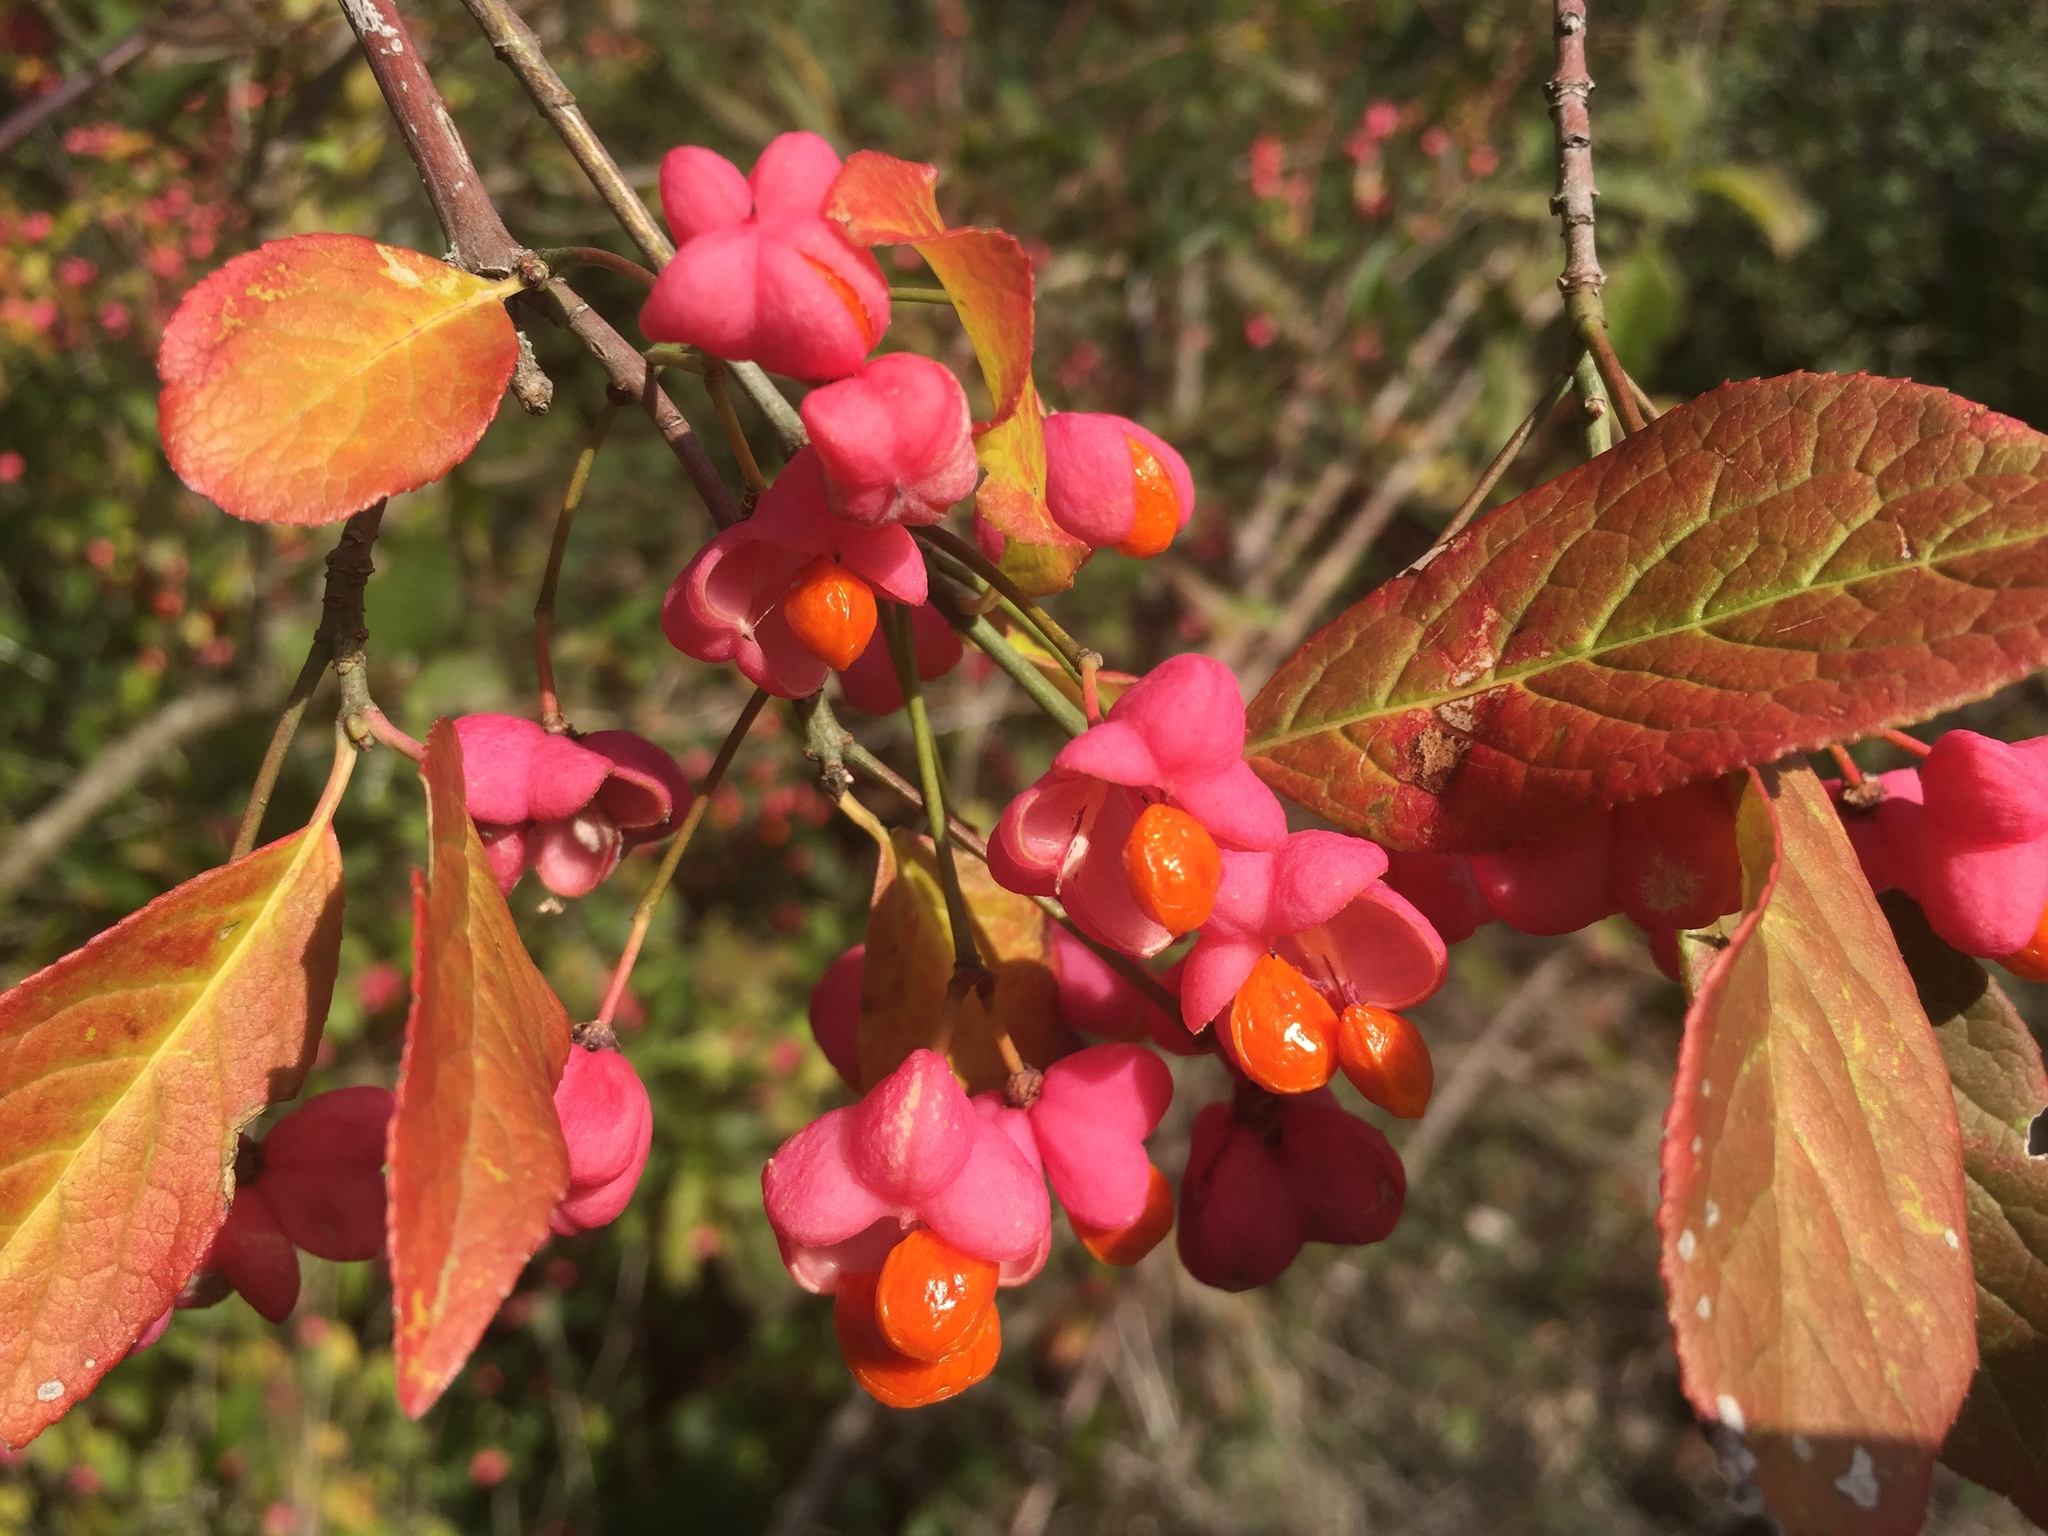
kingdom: Plantae
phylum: Tracheophyta
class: Magnoliopsida
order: Celastrales
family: Celastraceae
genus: Euonymus
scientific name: Euonymus europaeus
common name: Spindle
